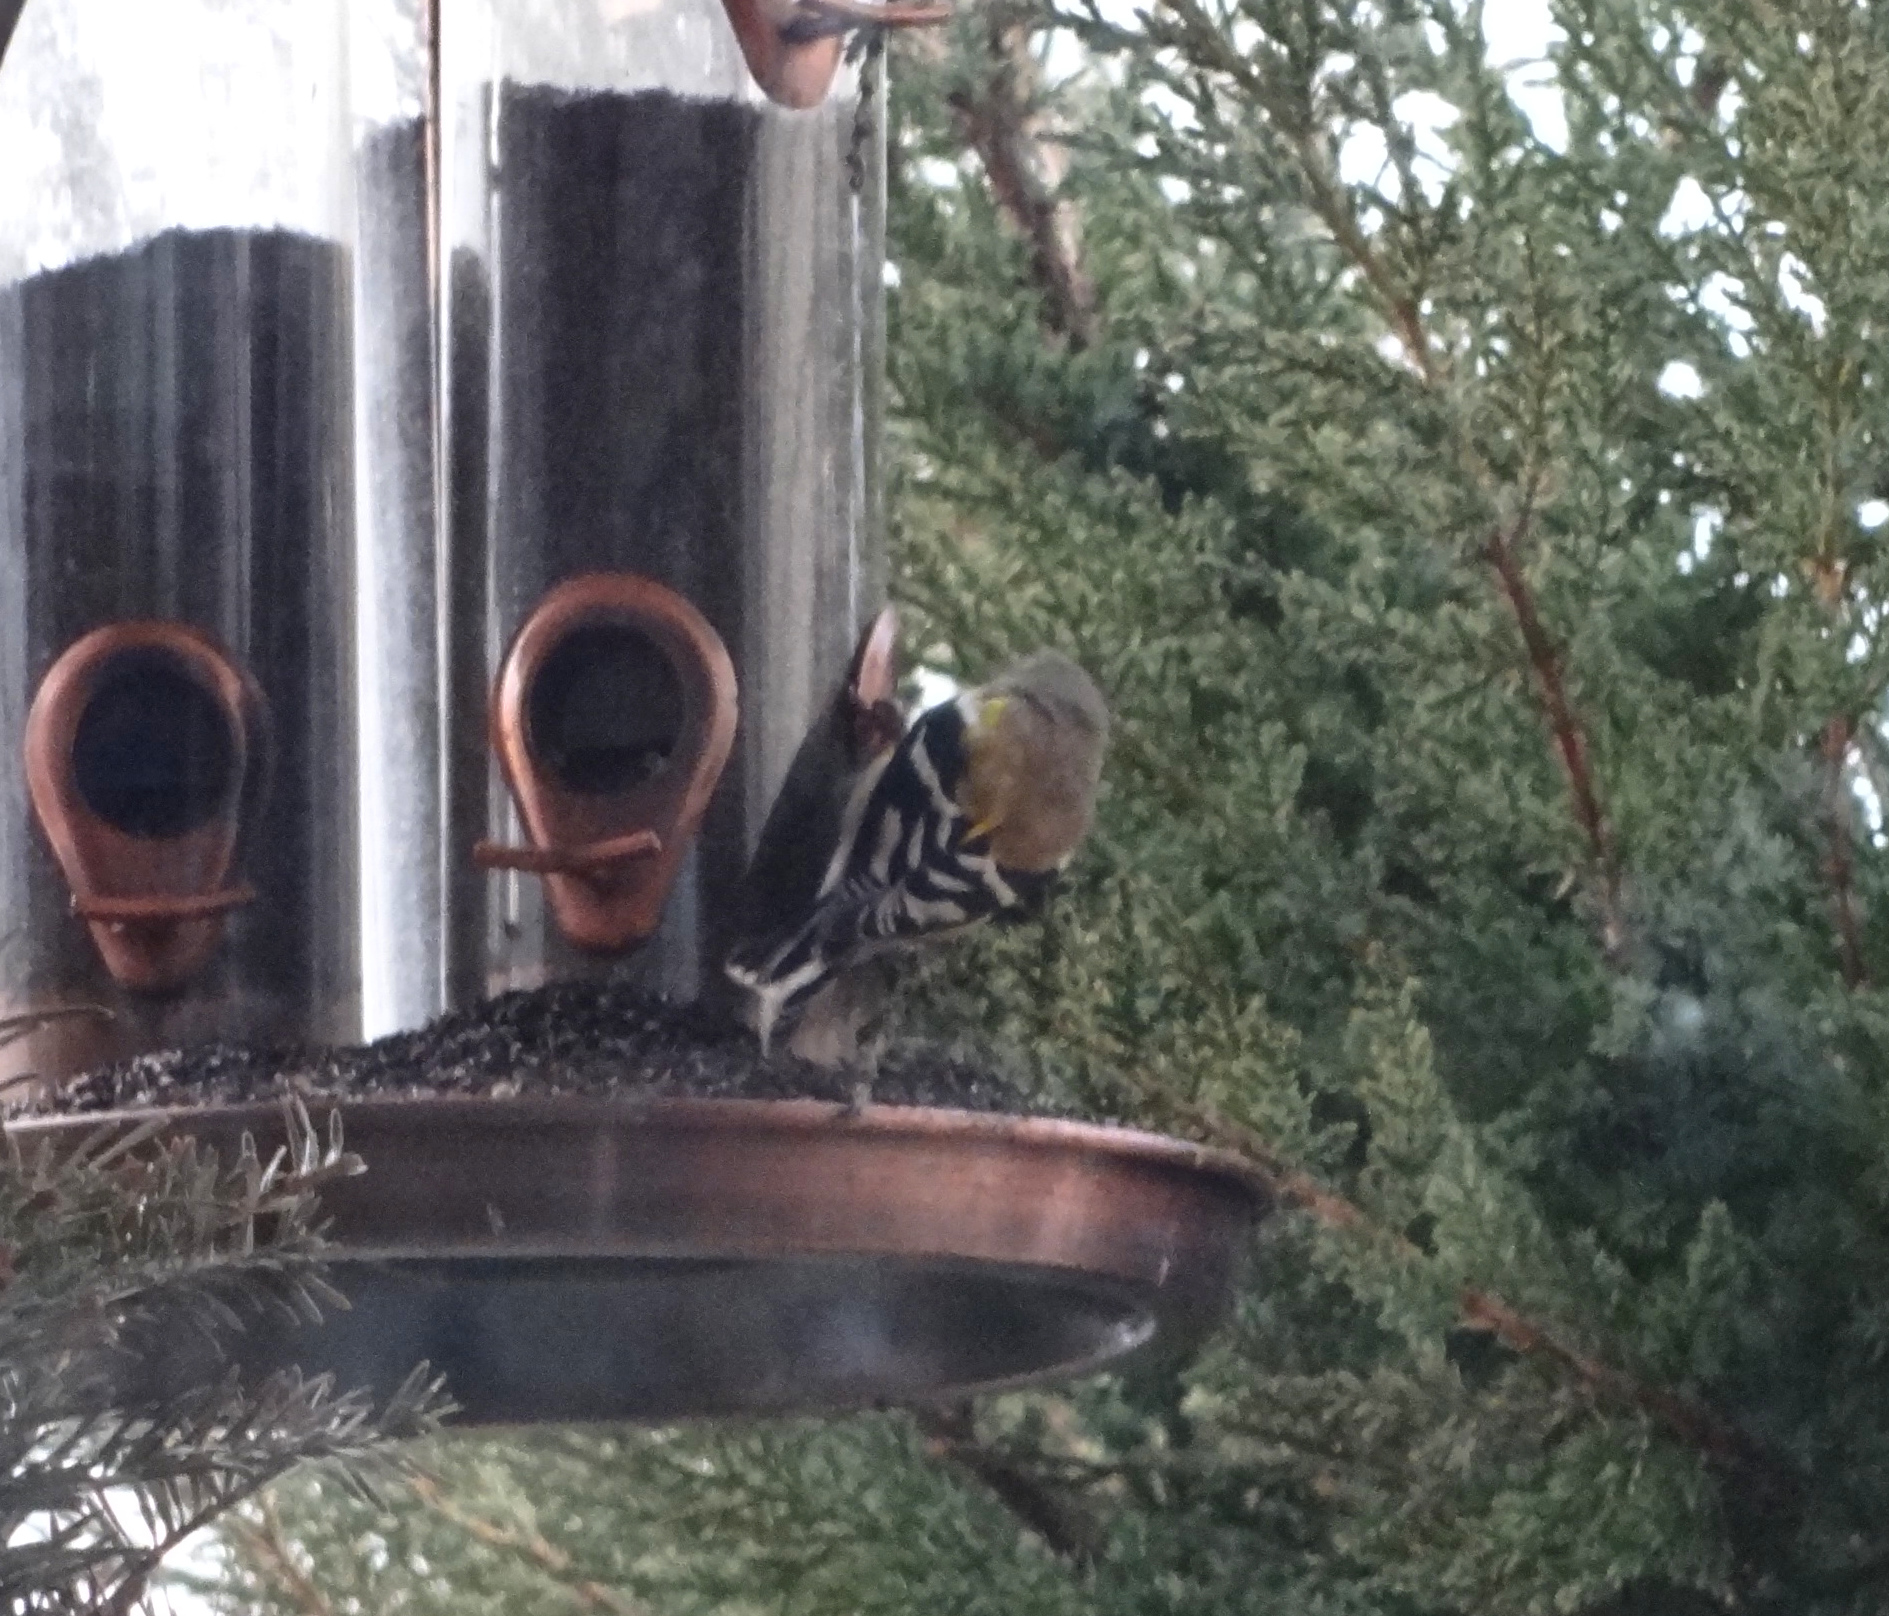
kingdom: Animalia
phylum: Chordata
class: Aves
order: Passeriformes
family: Fringillidae
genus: Spinus
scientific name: Spinus tristis
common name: American goldfinch
